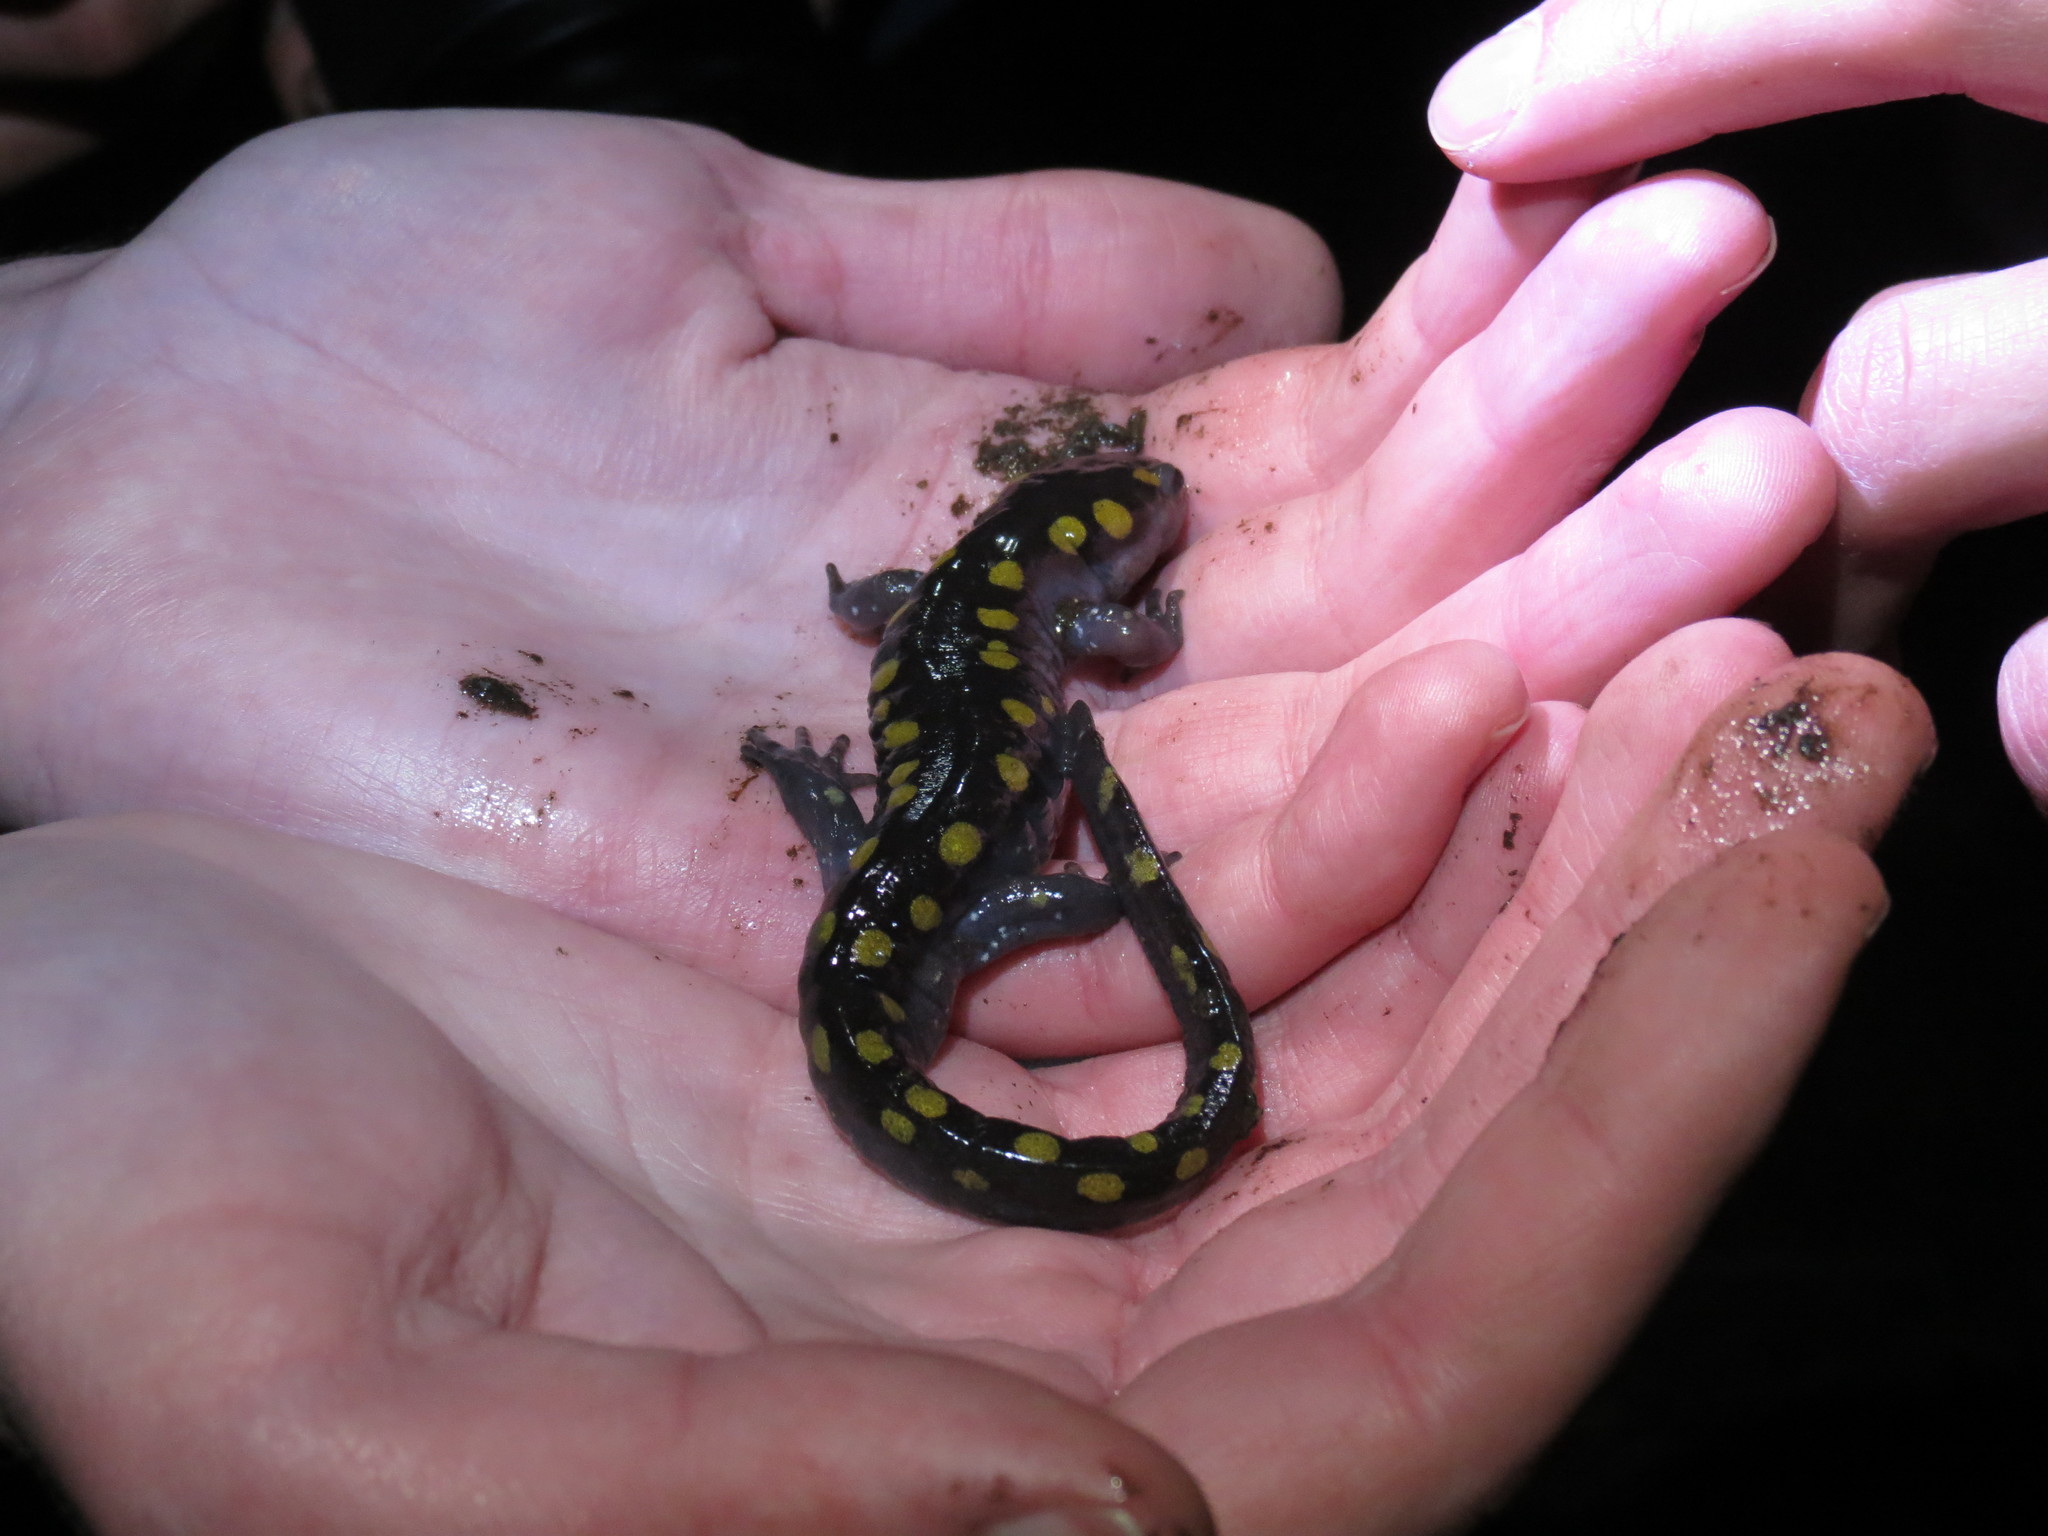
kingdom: Animalia
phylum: Chordata
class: Amphibia
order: Caudata
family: Ambystomatidae
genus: Ambystoma
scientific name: Ambystoma maculatum
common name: Spotted salamander
